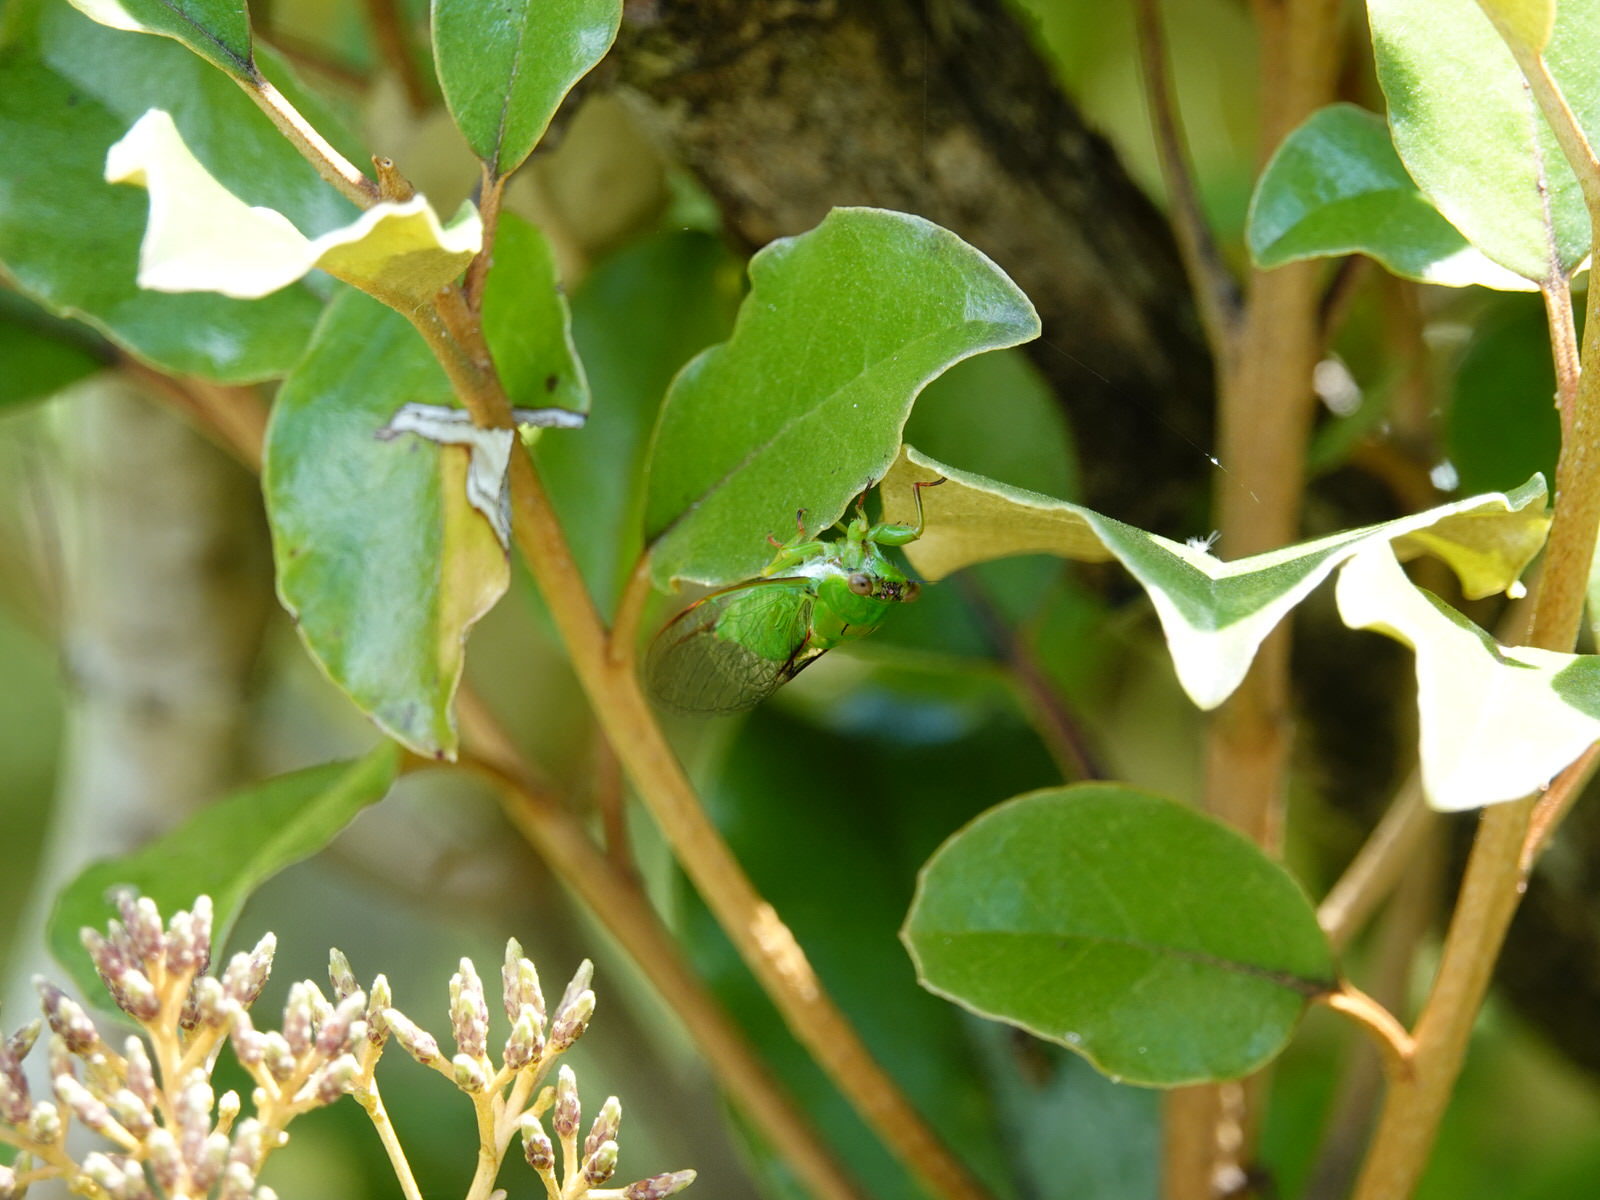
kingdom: Animalia
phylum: Arthropoda
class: Insecta
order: Hemiptera
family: Cicadidae
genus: Kikihia
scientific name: Kikihia ochrina
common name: April green cicada
